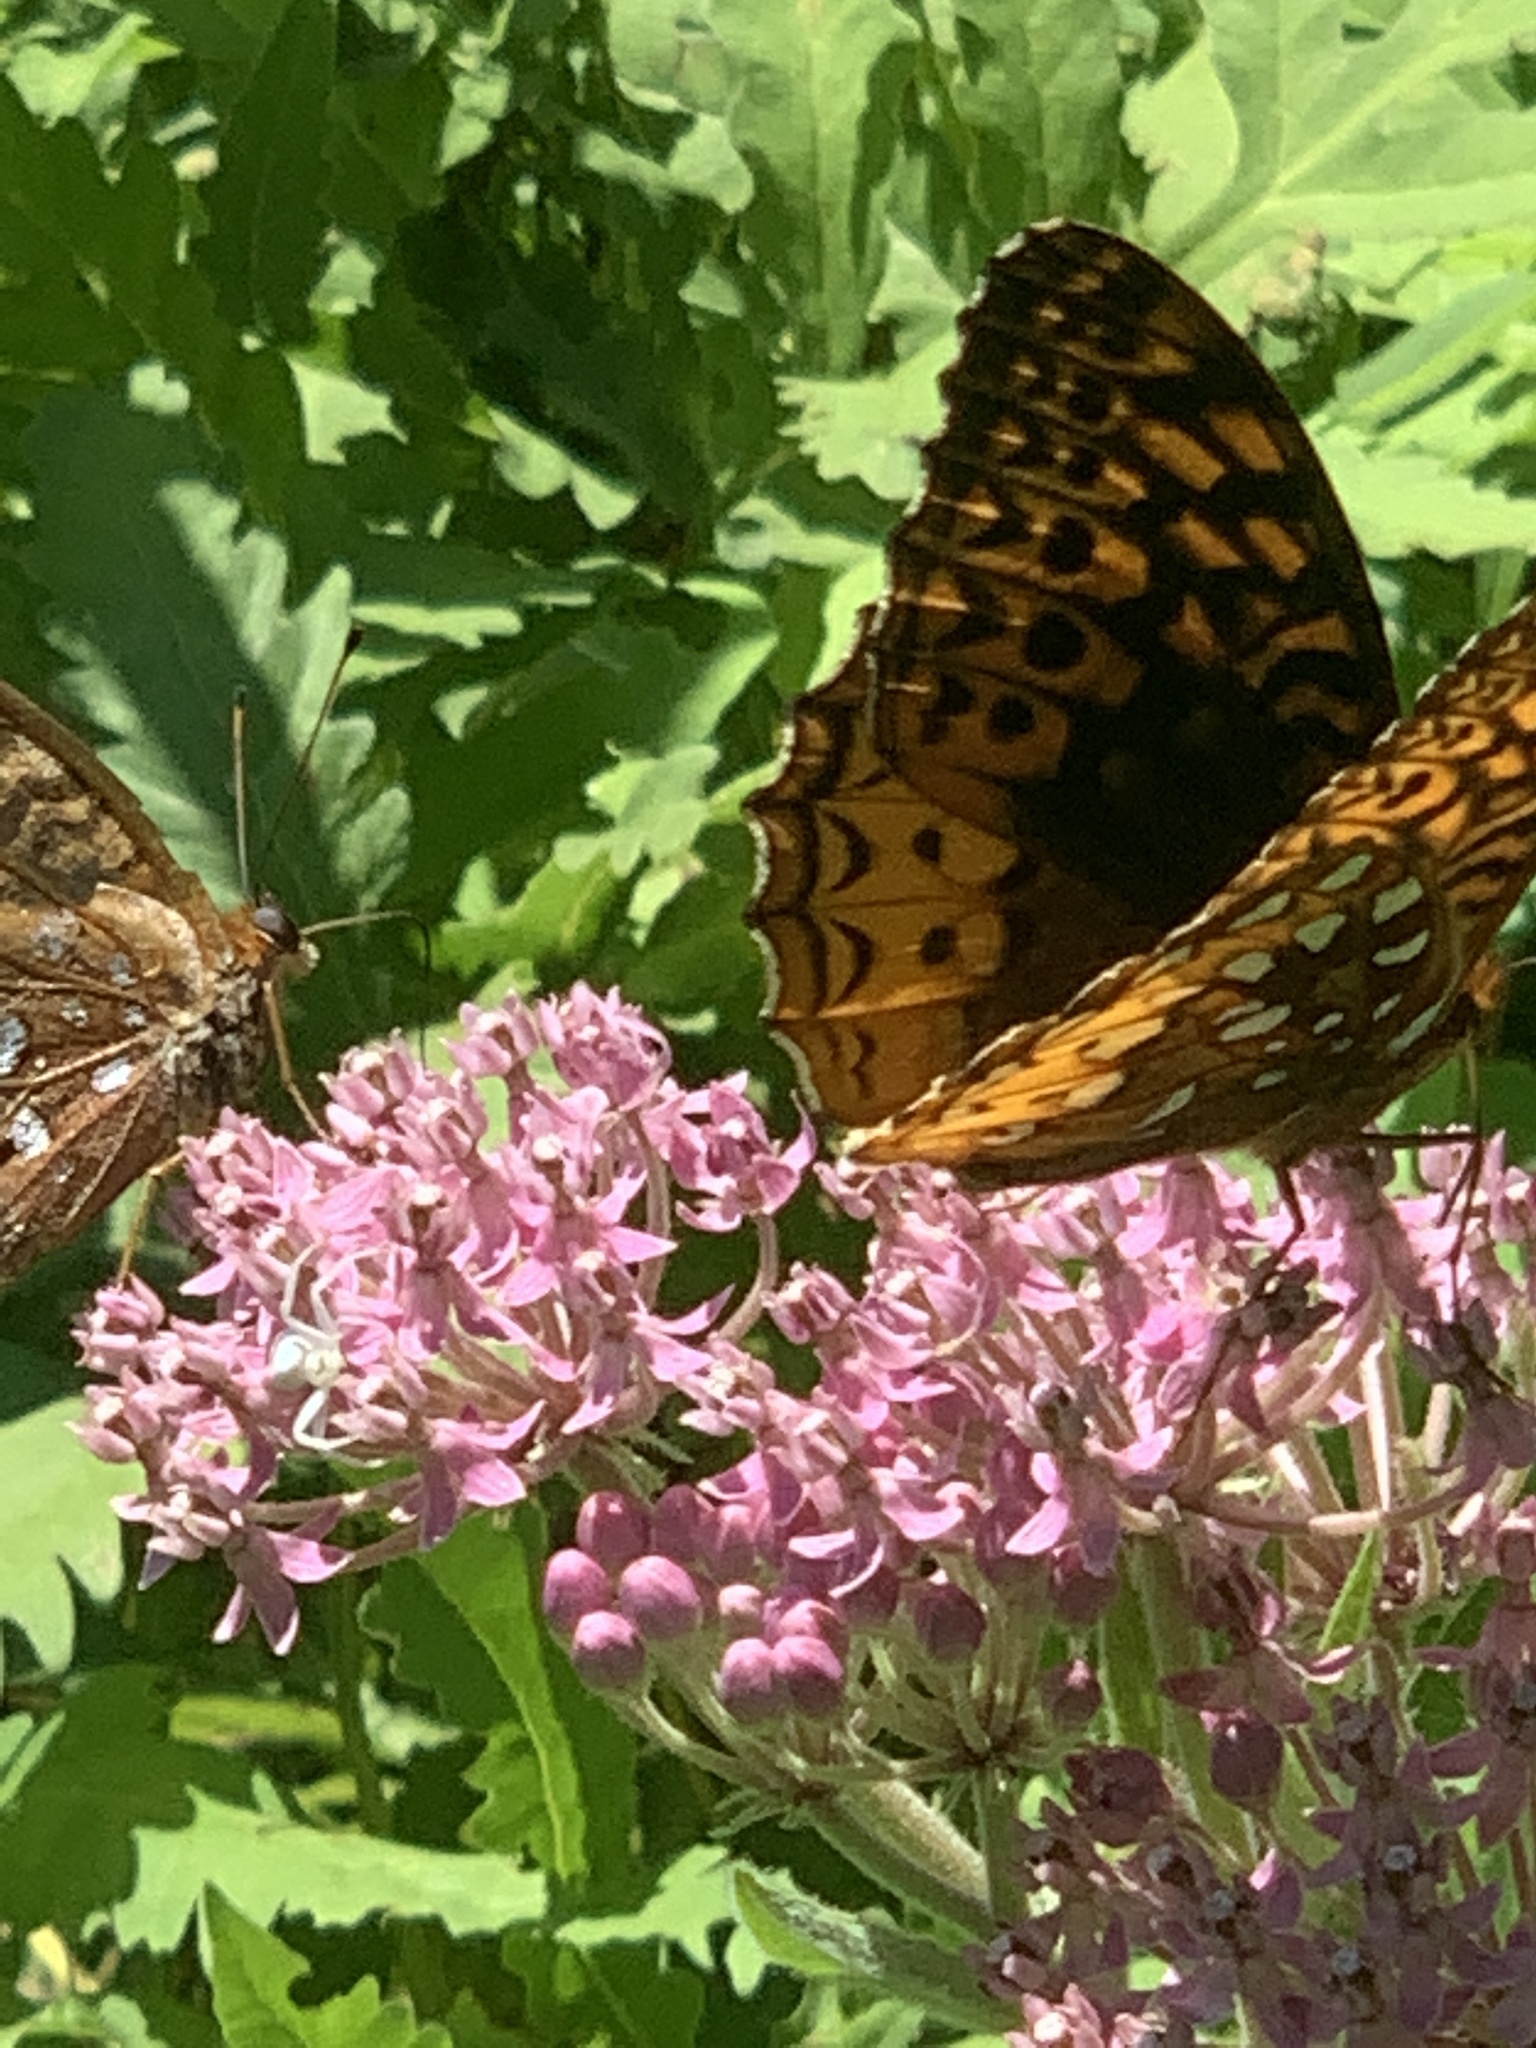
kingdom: Animalia
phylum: Arthropoda
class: Insecta
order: Lepidoptera
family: Nymphalidae
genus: Speyeria
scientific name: Speyeria cybele
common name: Great spangled fritillary
